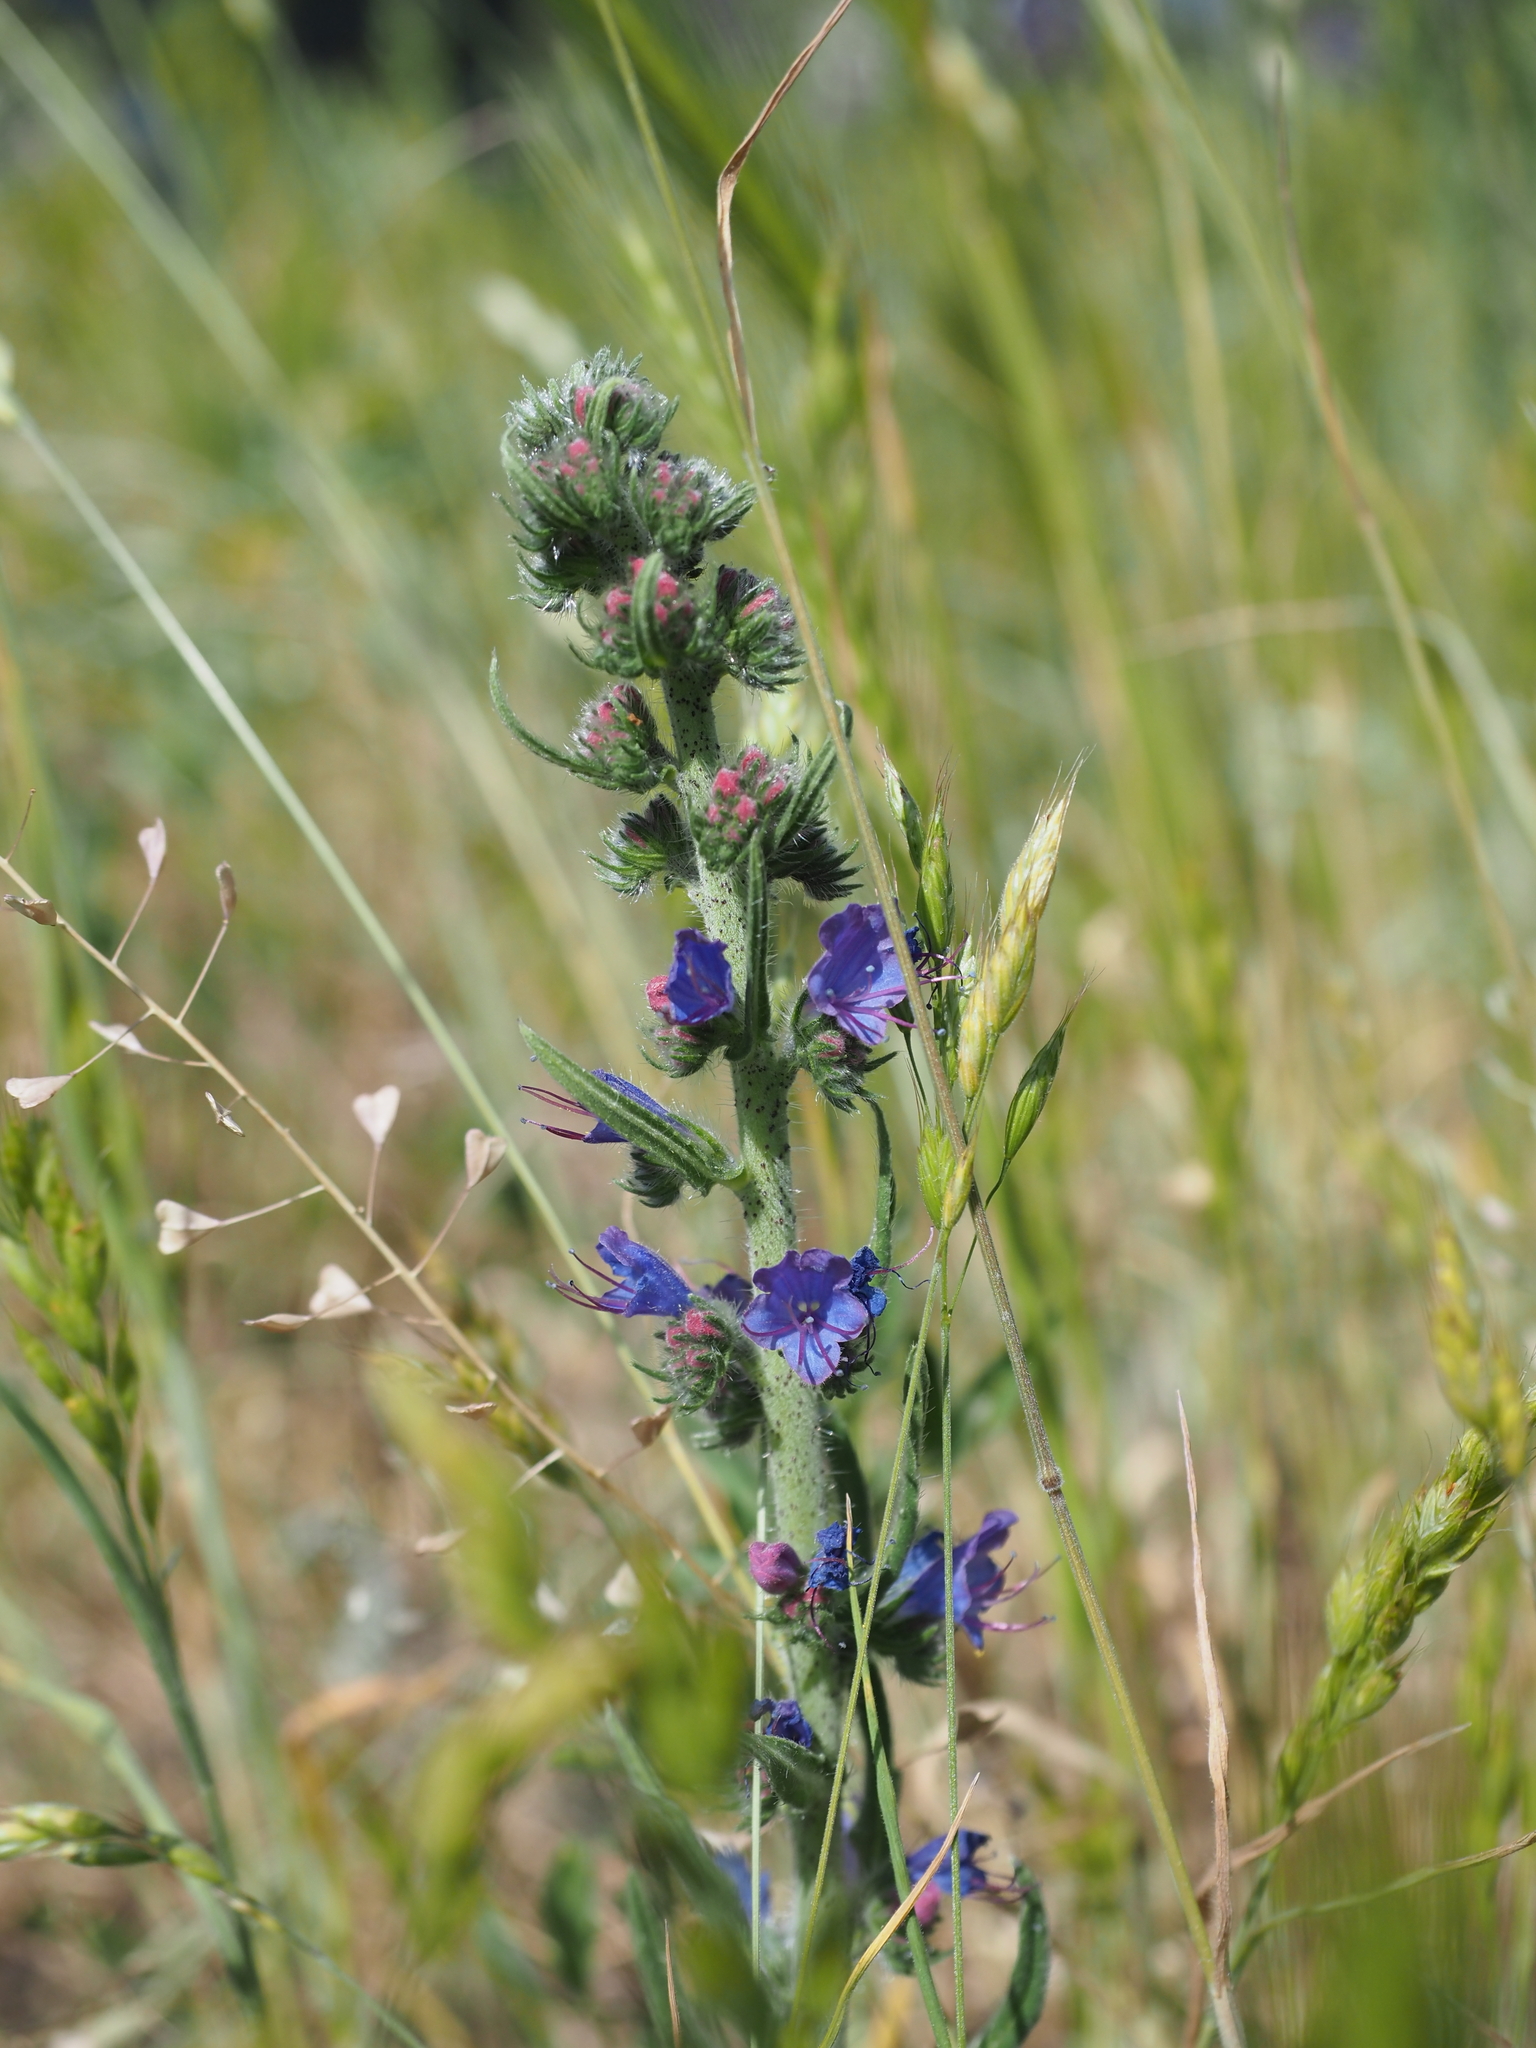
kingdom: Plantae
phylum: Tracheophyta
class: Magnoliopsida
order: Boraginales
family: Boraginaceae
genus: Echium
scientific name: Echium vulgare
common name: Common viper's bugloss
